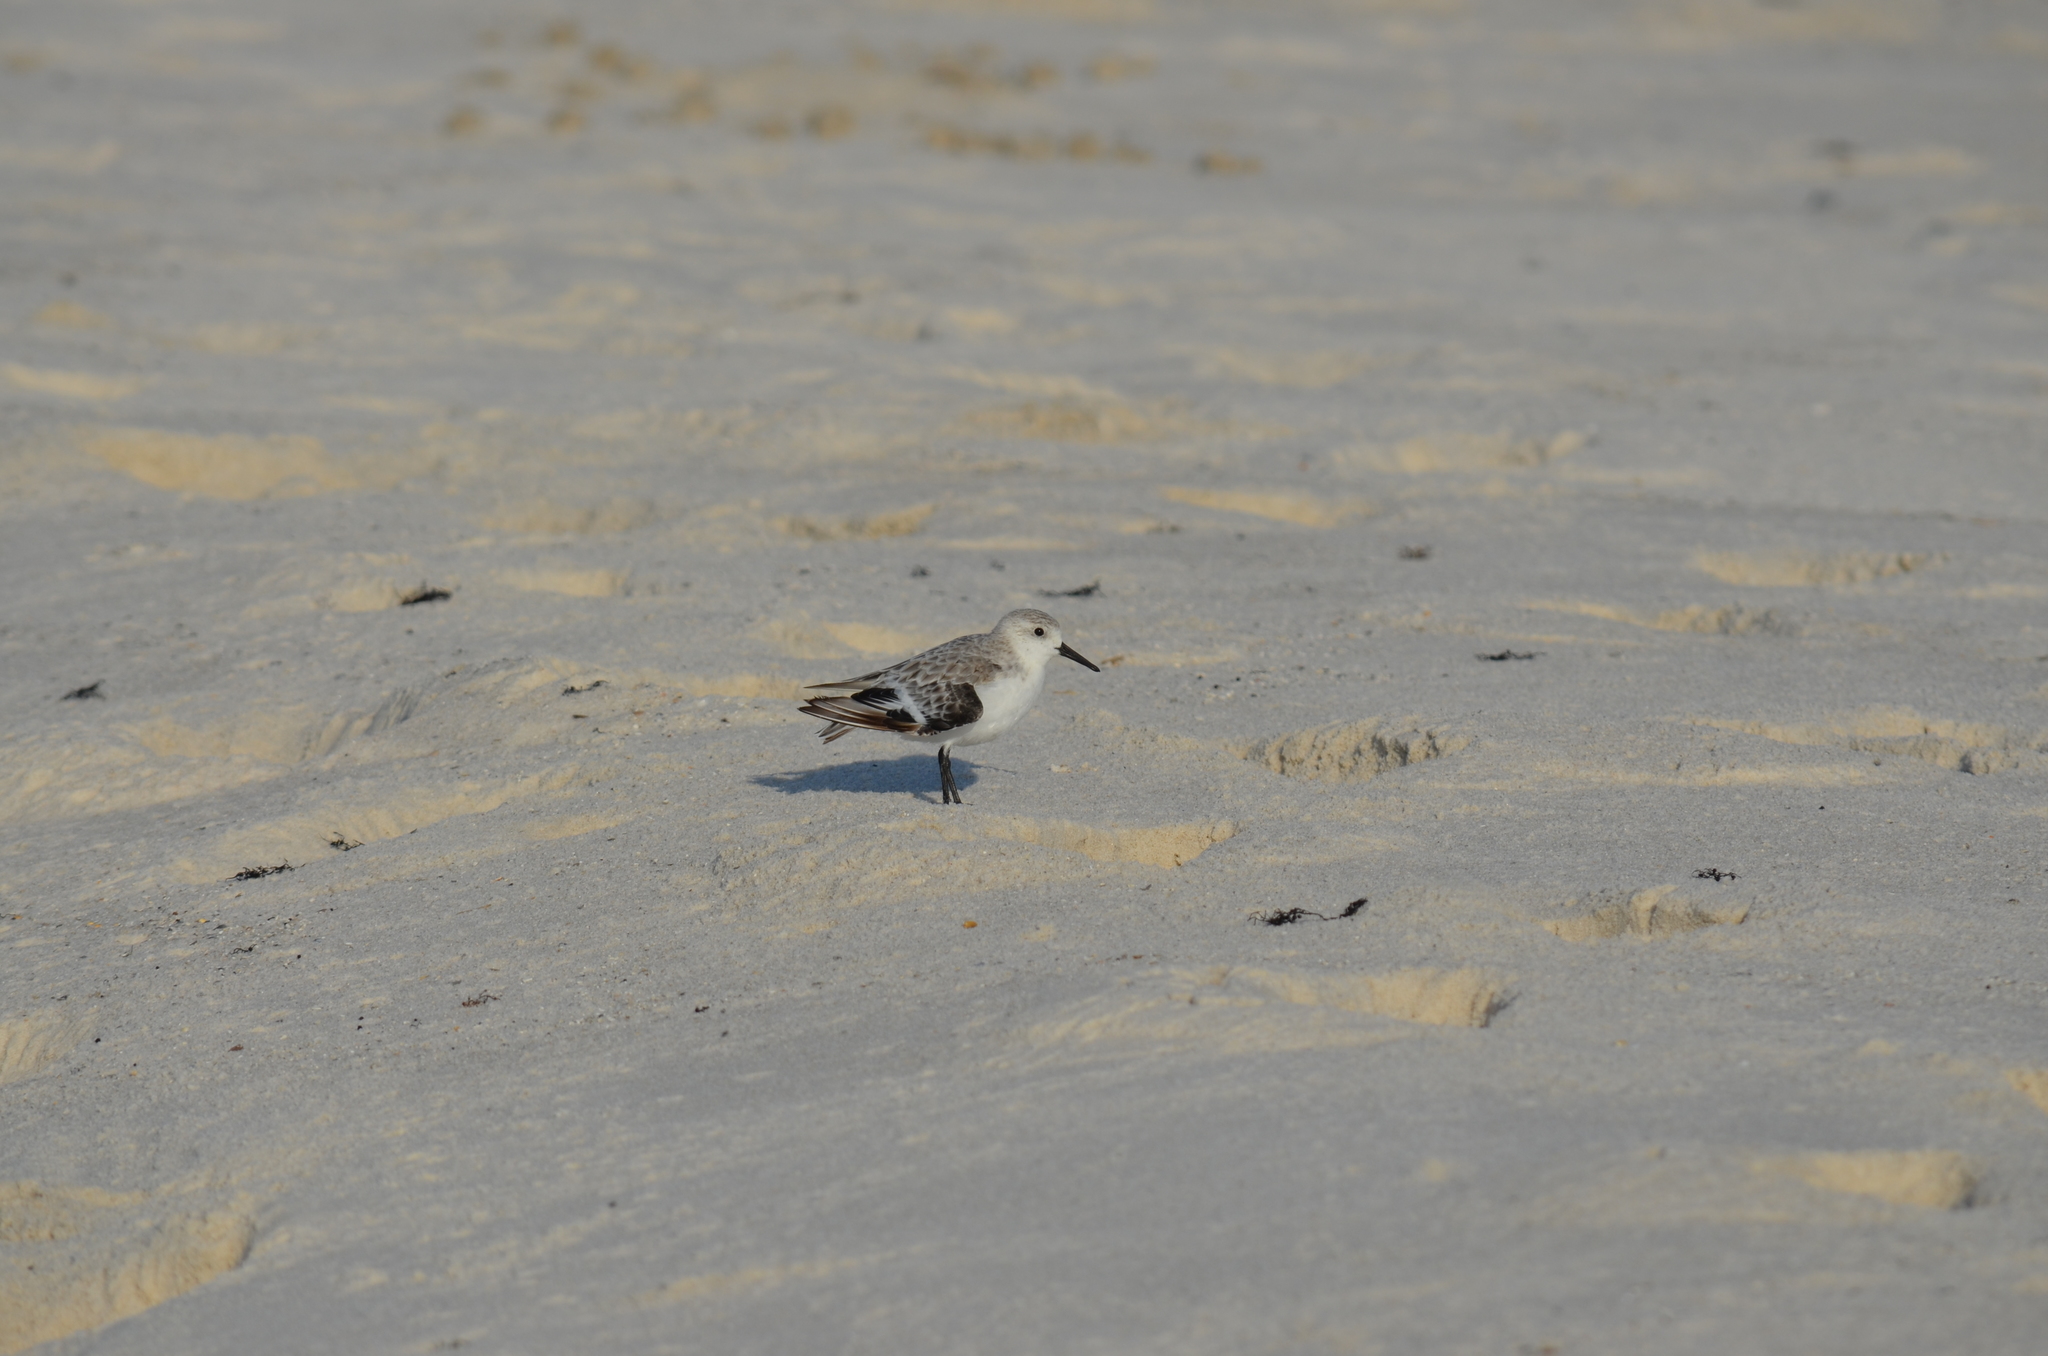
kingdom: Animalia
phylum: Chordata
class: Aves
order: Charadriiformes
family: Scolopacidae
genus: Calidris
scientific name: Calidris alba
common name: Sanderling
